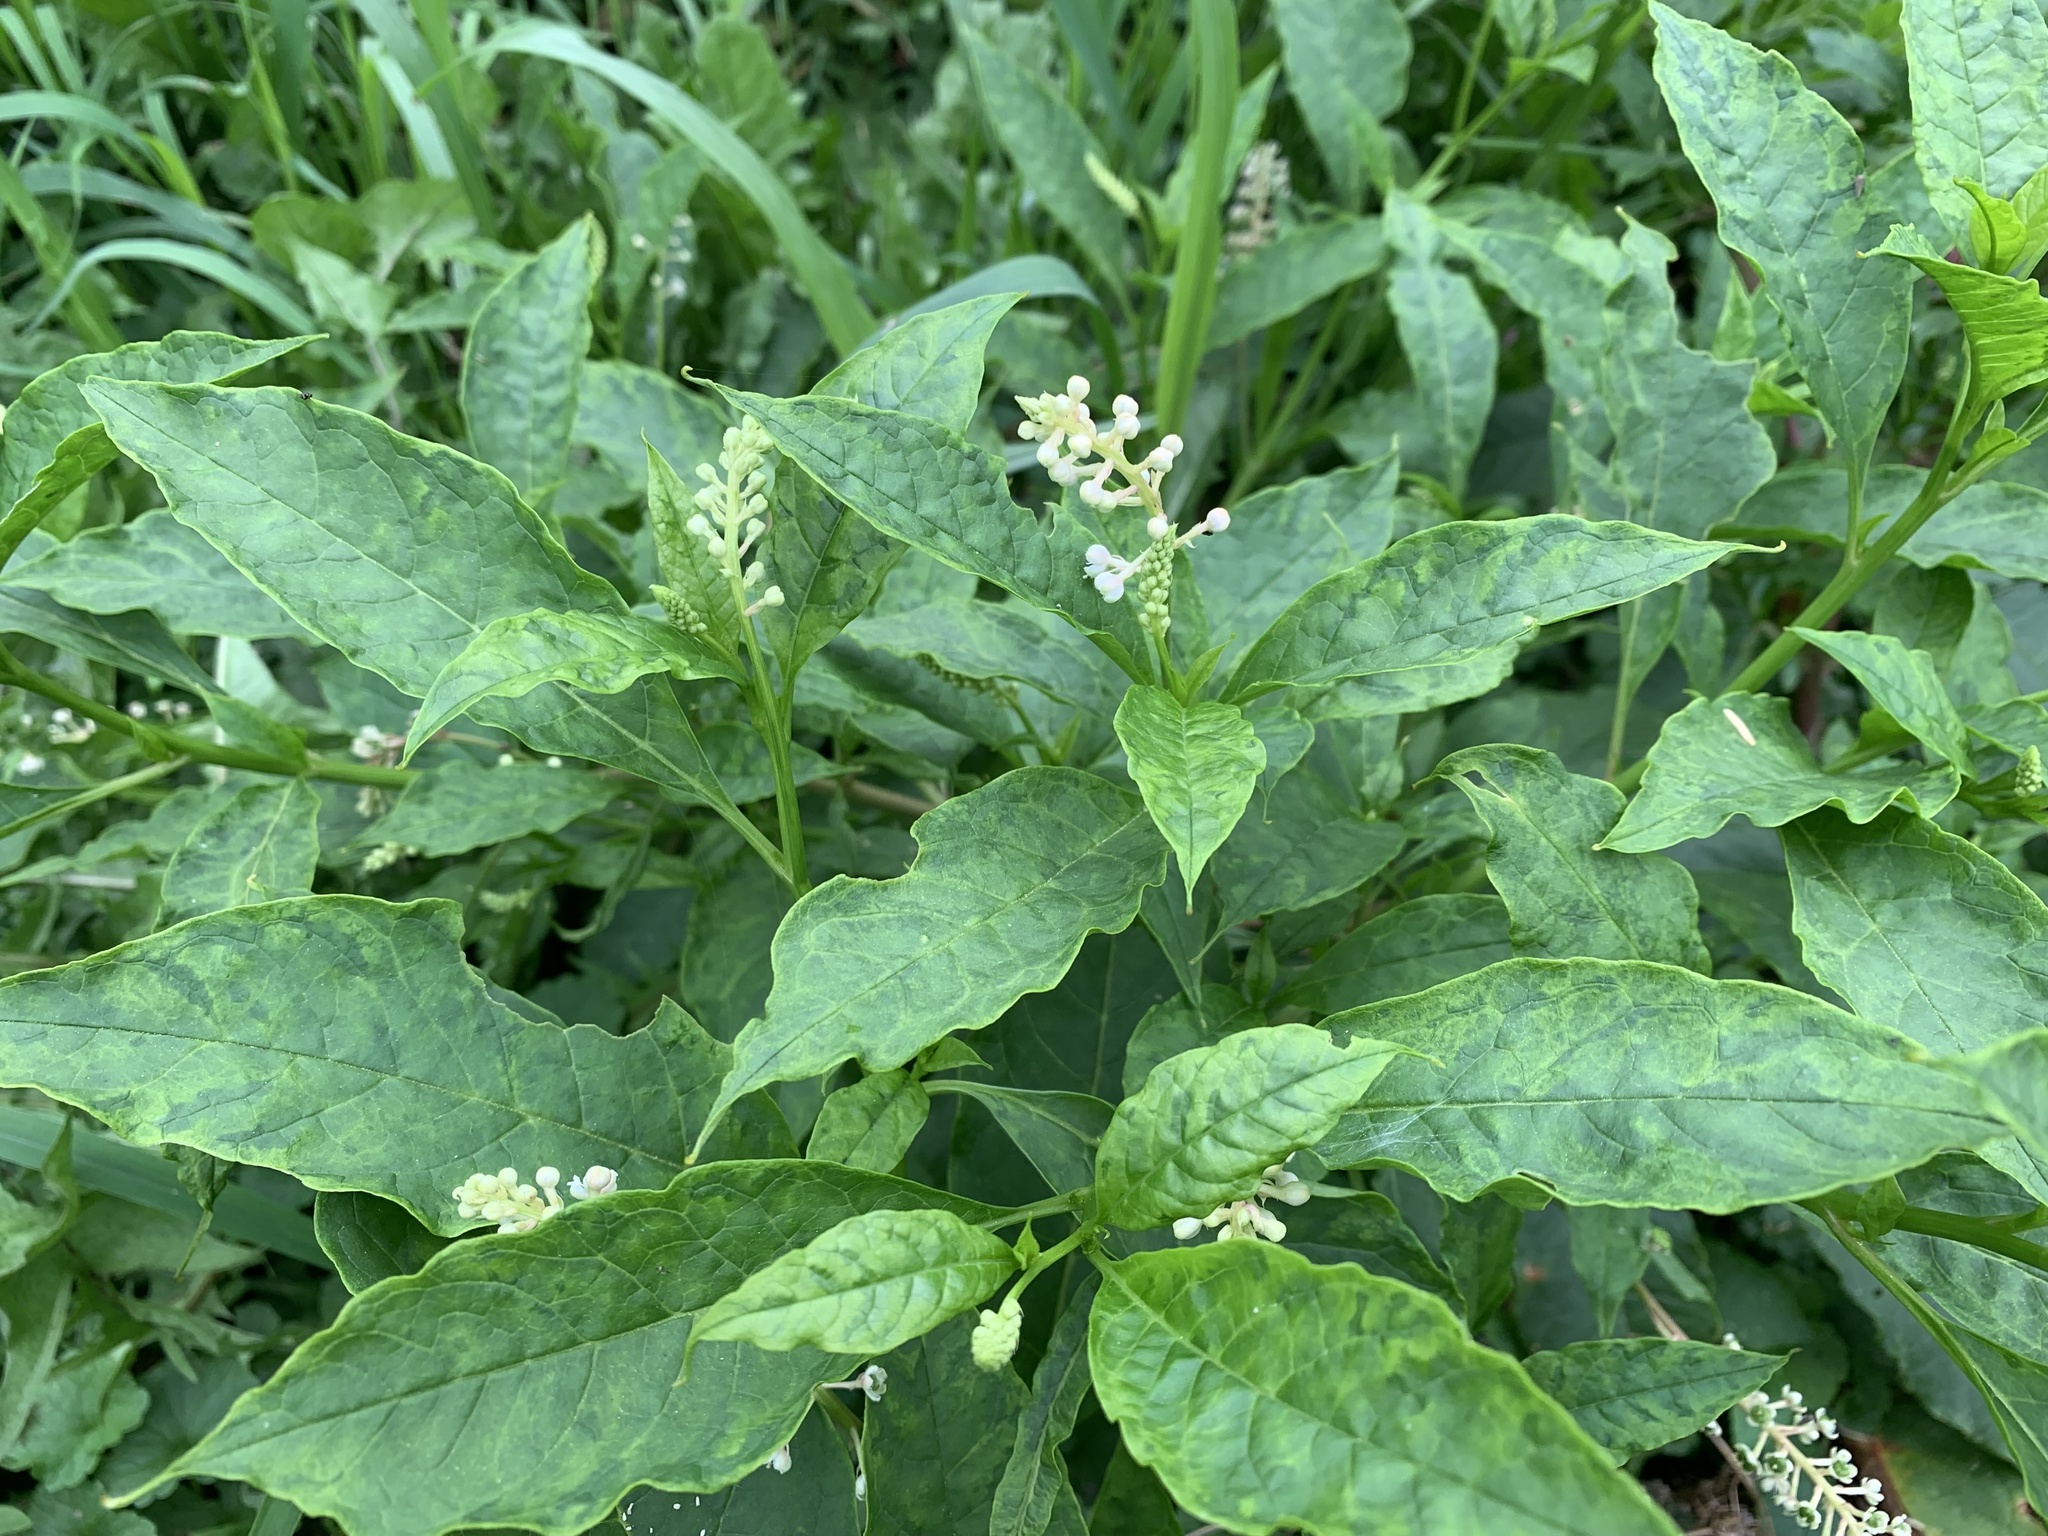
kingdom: Plantae
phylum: Tracheophyta
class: Magnoliopsida
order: Caryophyllales
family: Phytolaccaceae
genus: Phytolacca
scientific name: Phytolacca americana
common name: American pokeweed
